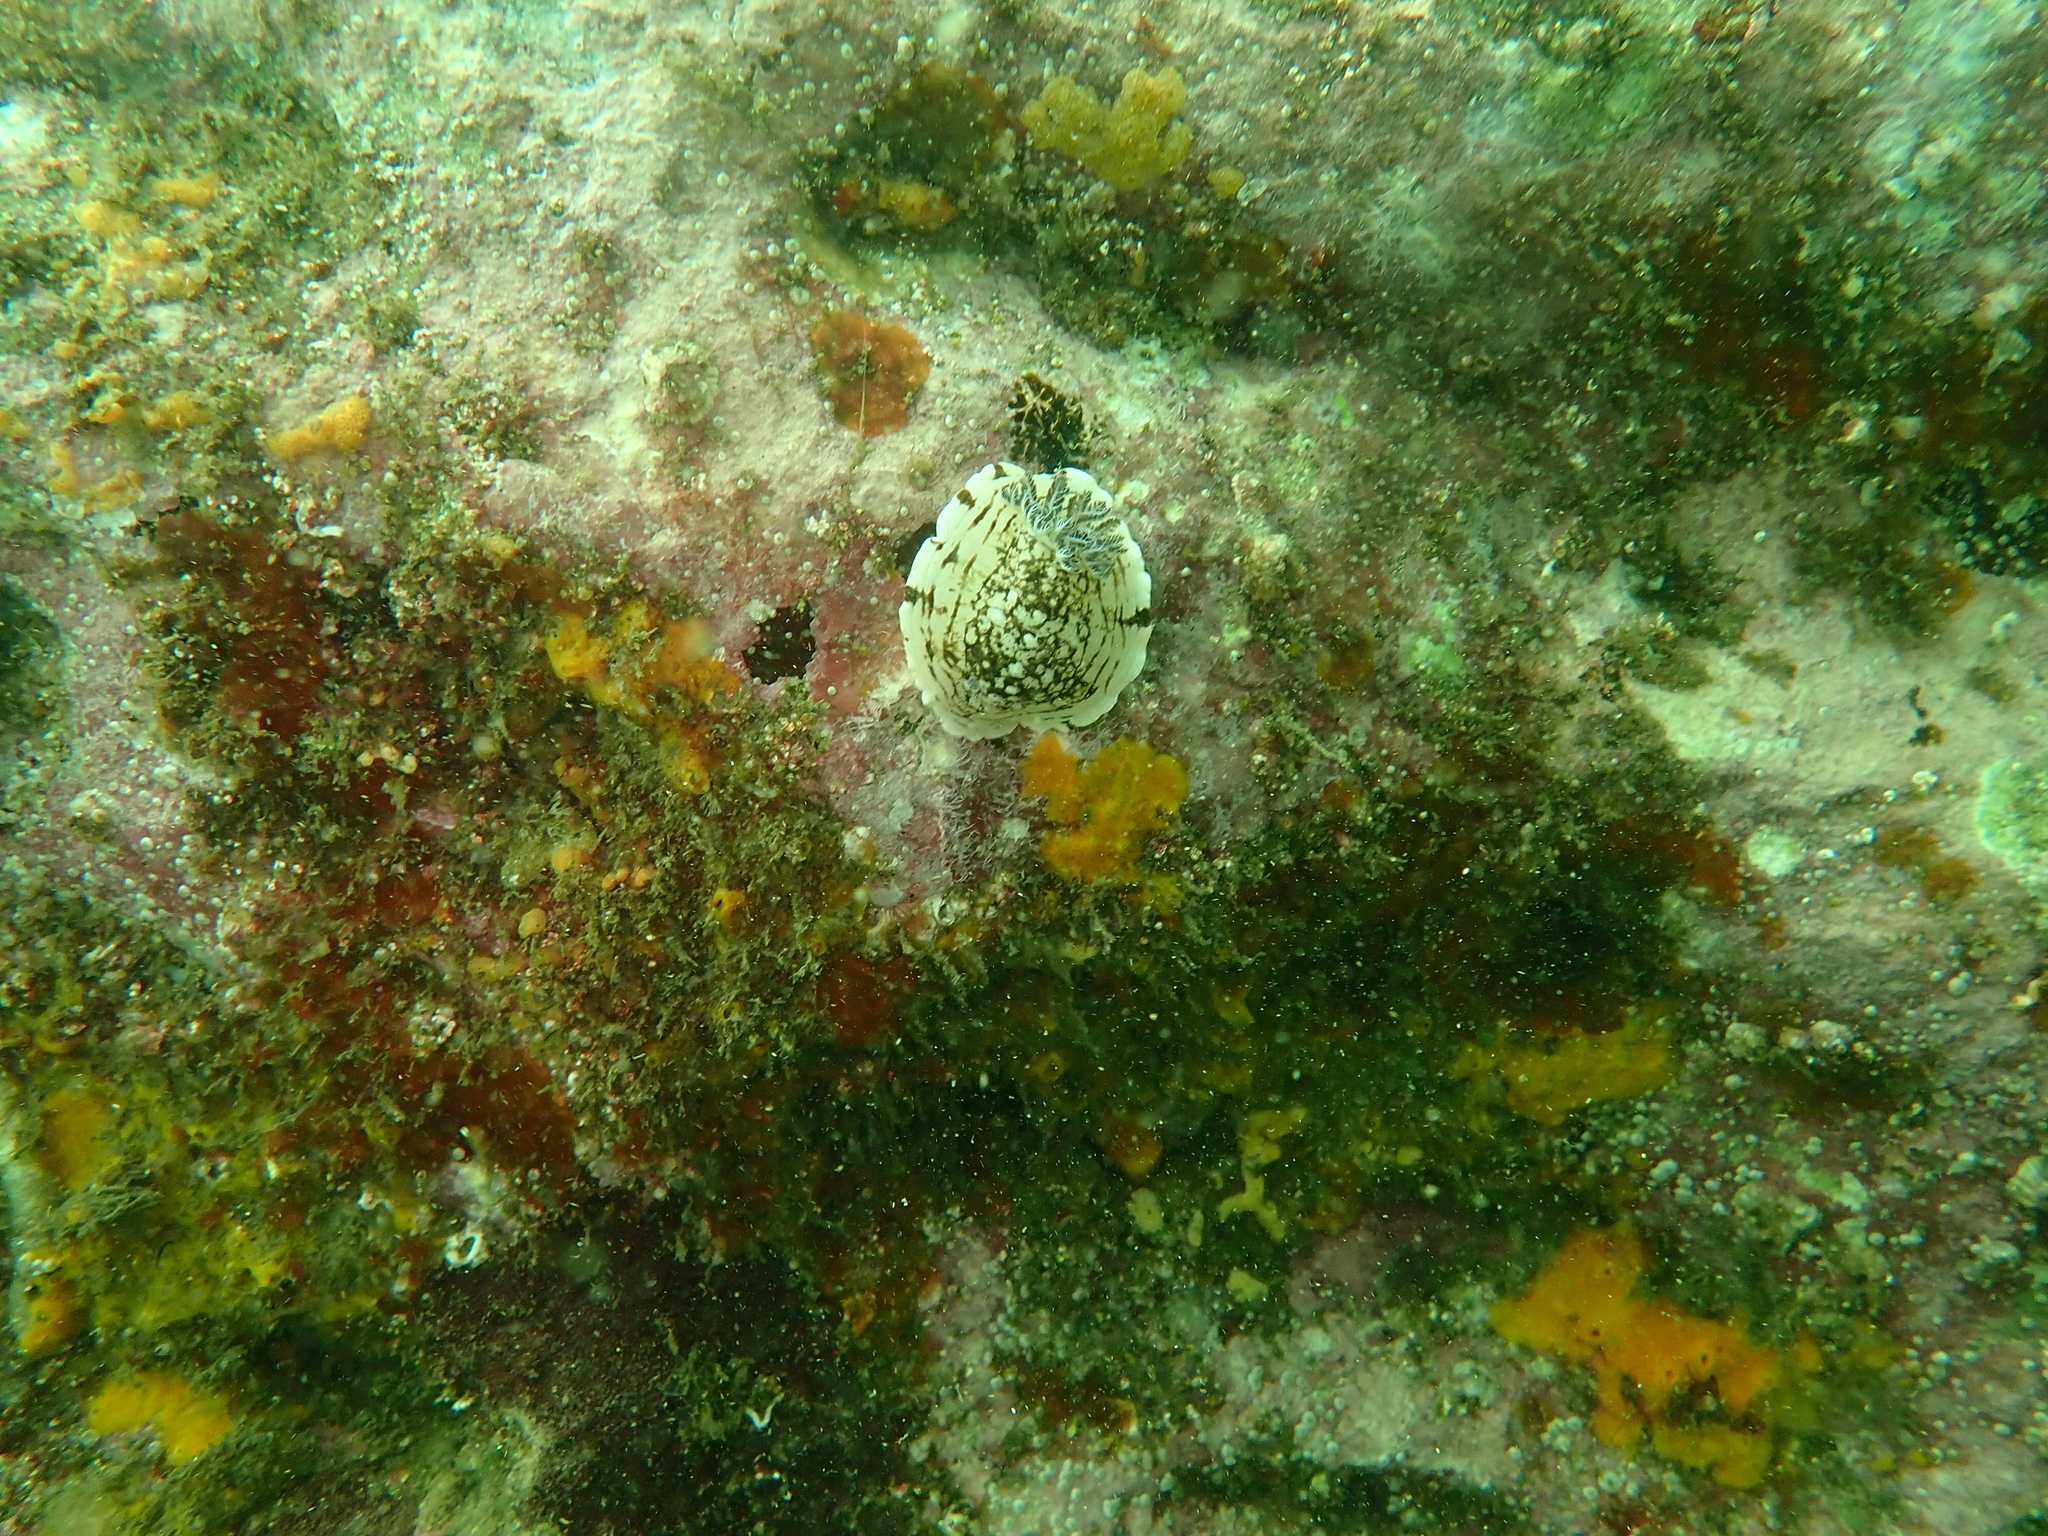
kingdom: Animalia
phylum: Mollusca
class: Gastropoda
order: Nudibranchia
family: Dorididae
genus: Aphelodoris
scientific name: Aphelodoris varia
